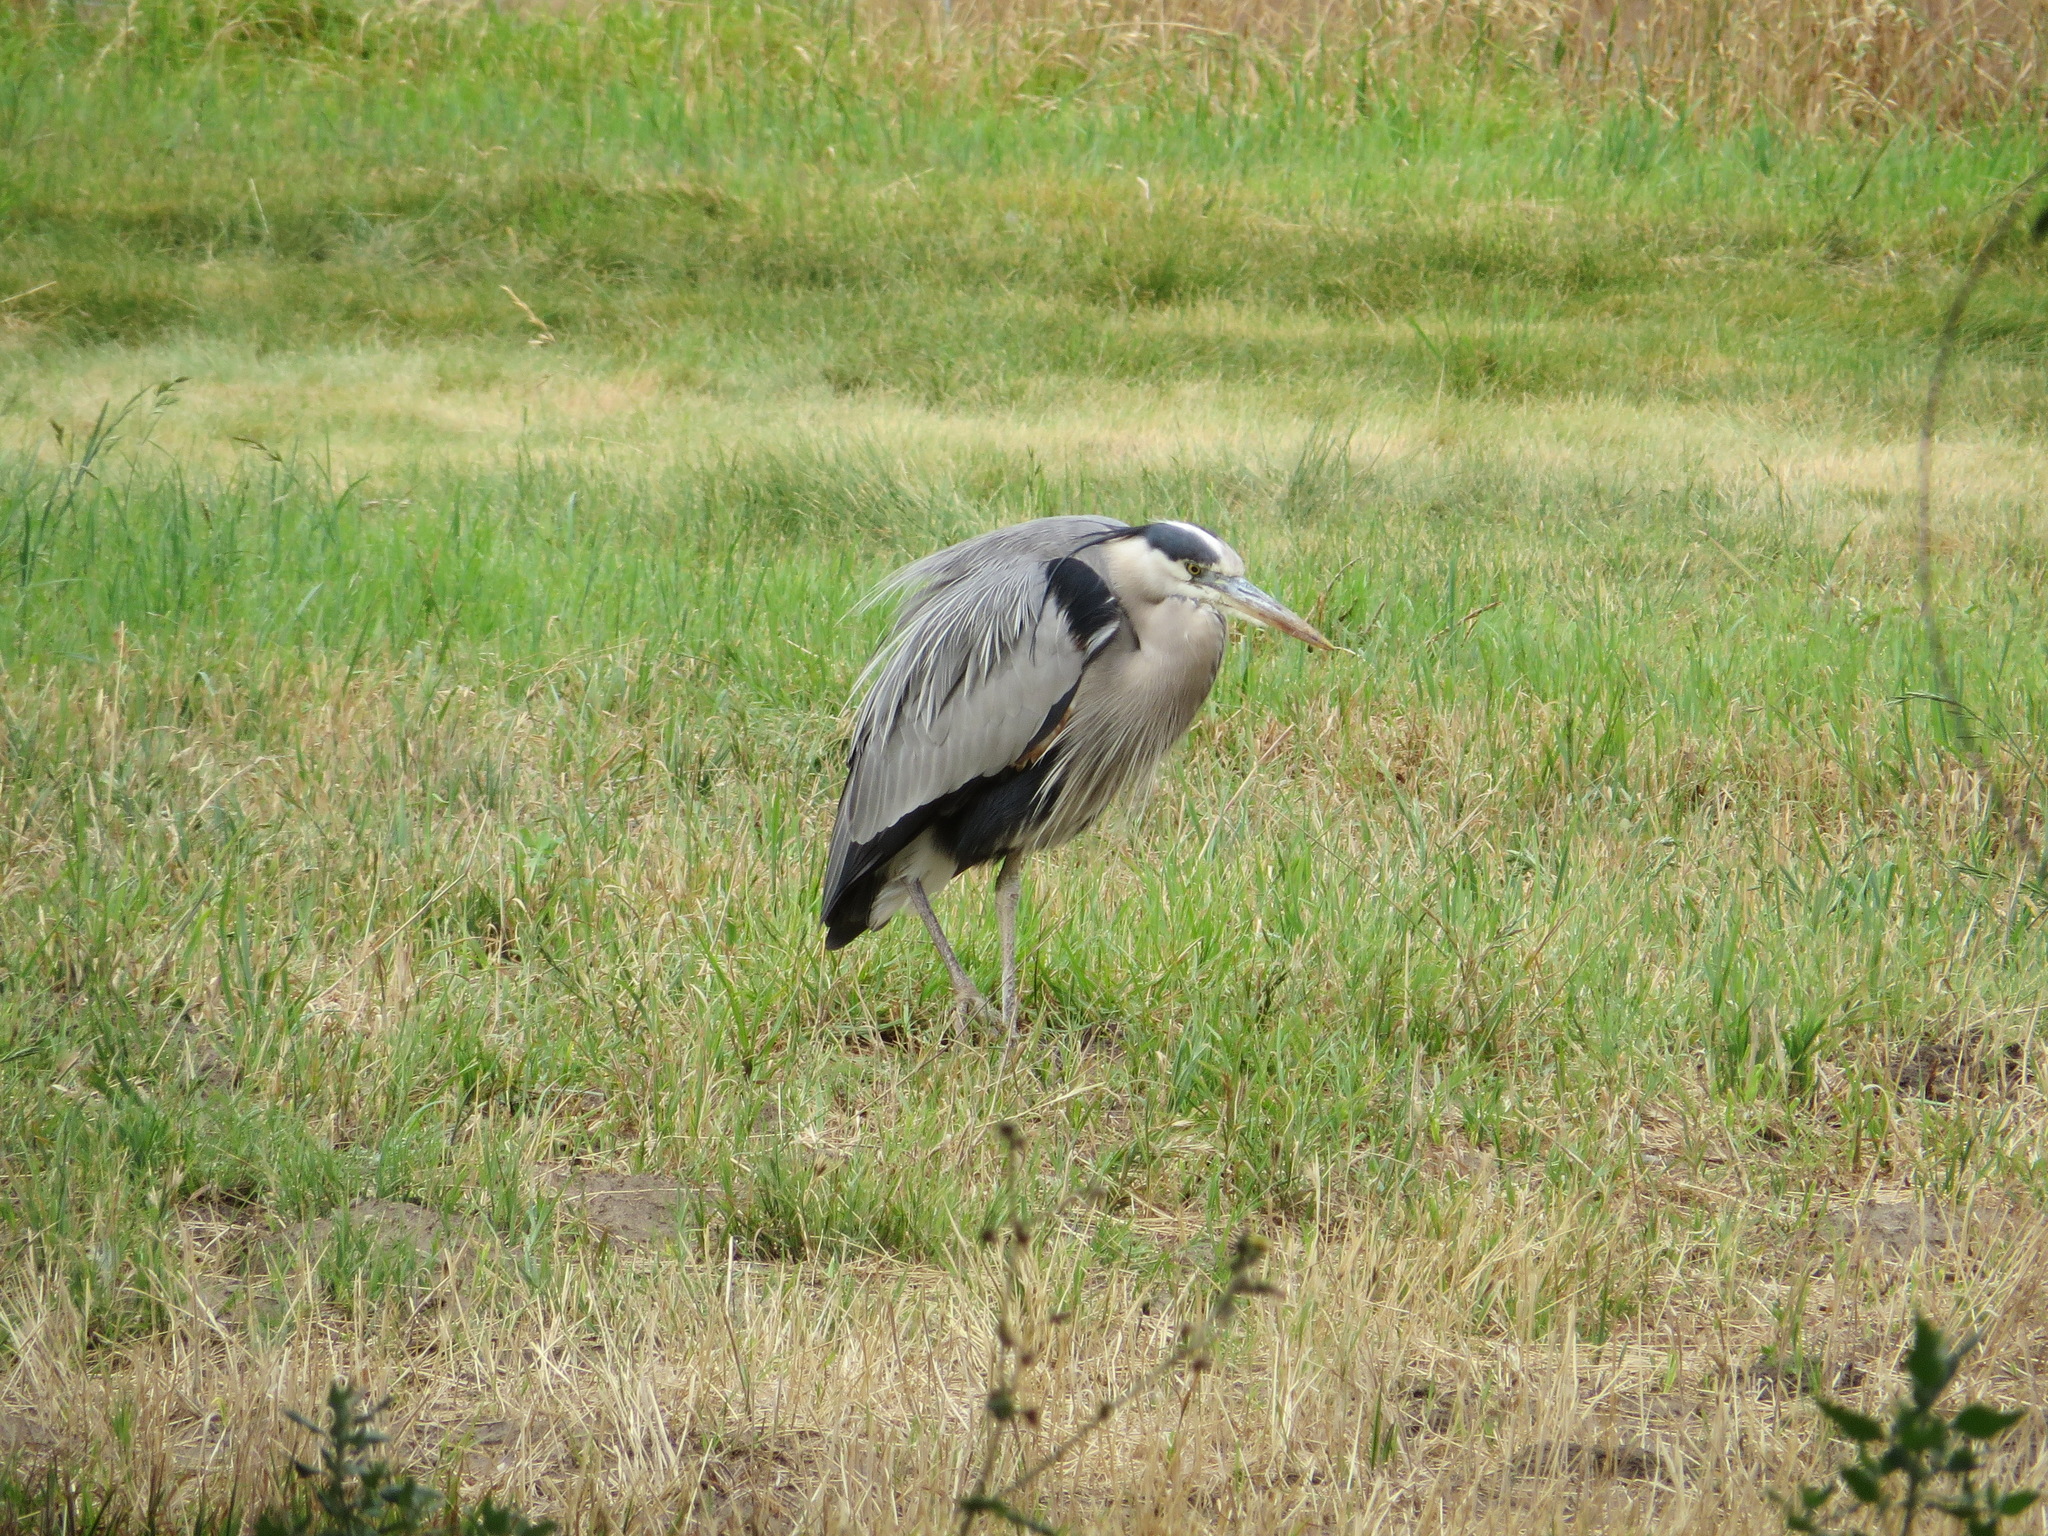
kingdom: Animalia
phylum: Chordata
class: Aves
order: Pelecaniformes
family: Ardeidae
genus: Ardea
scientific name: Ardea herodias
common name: Great blue heron
